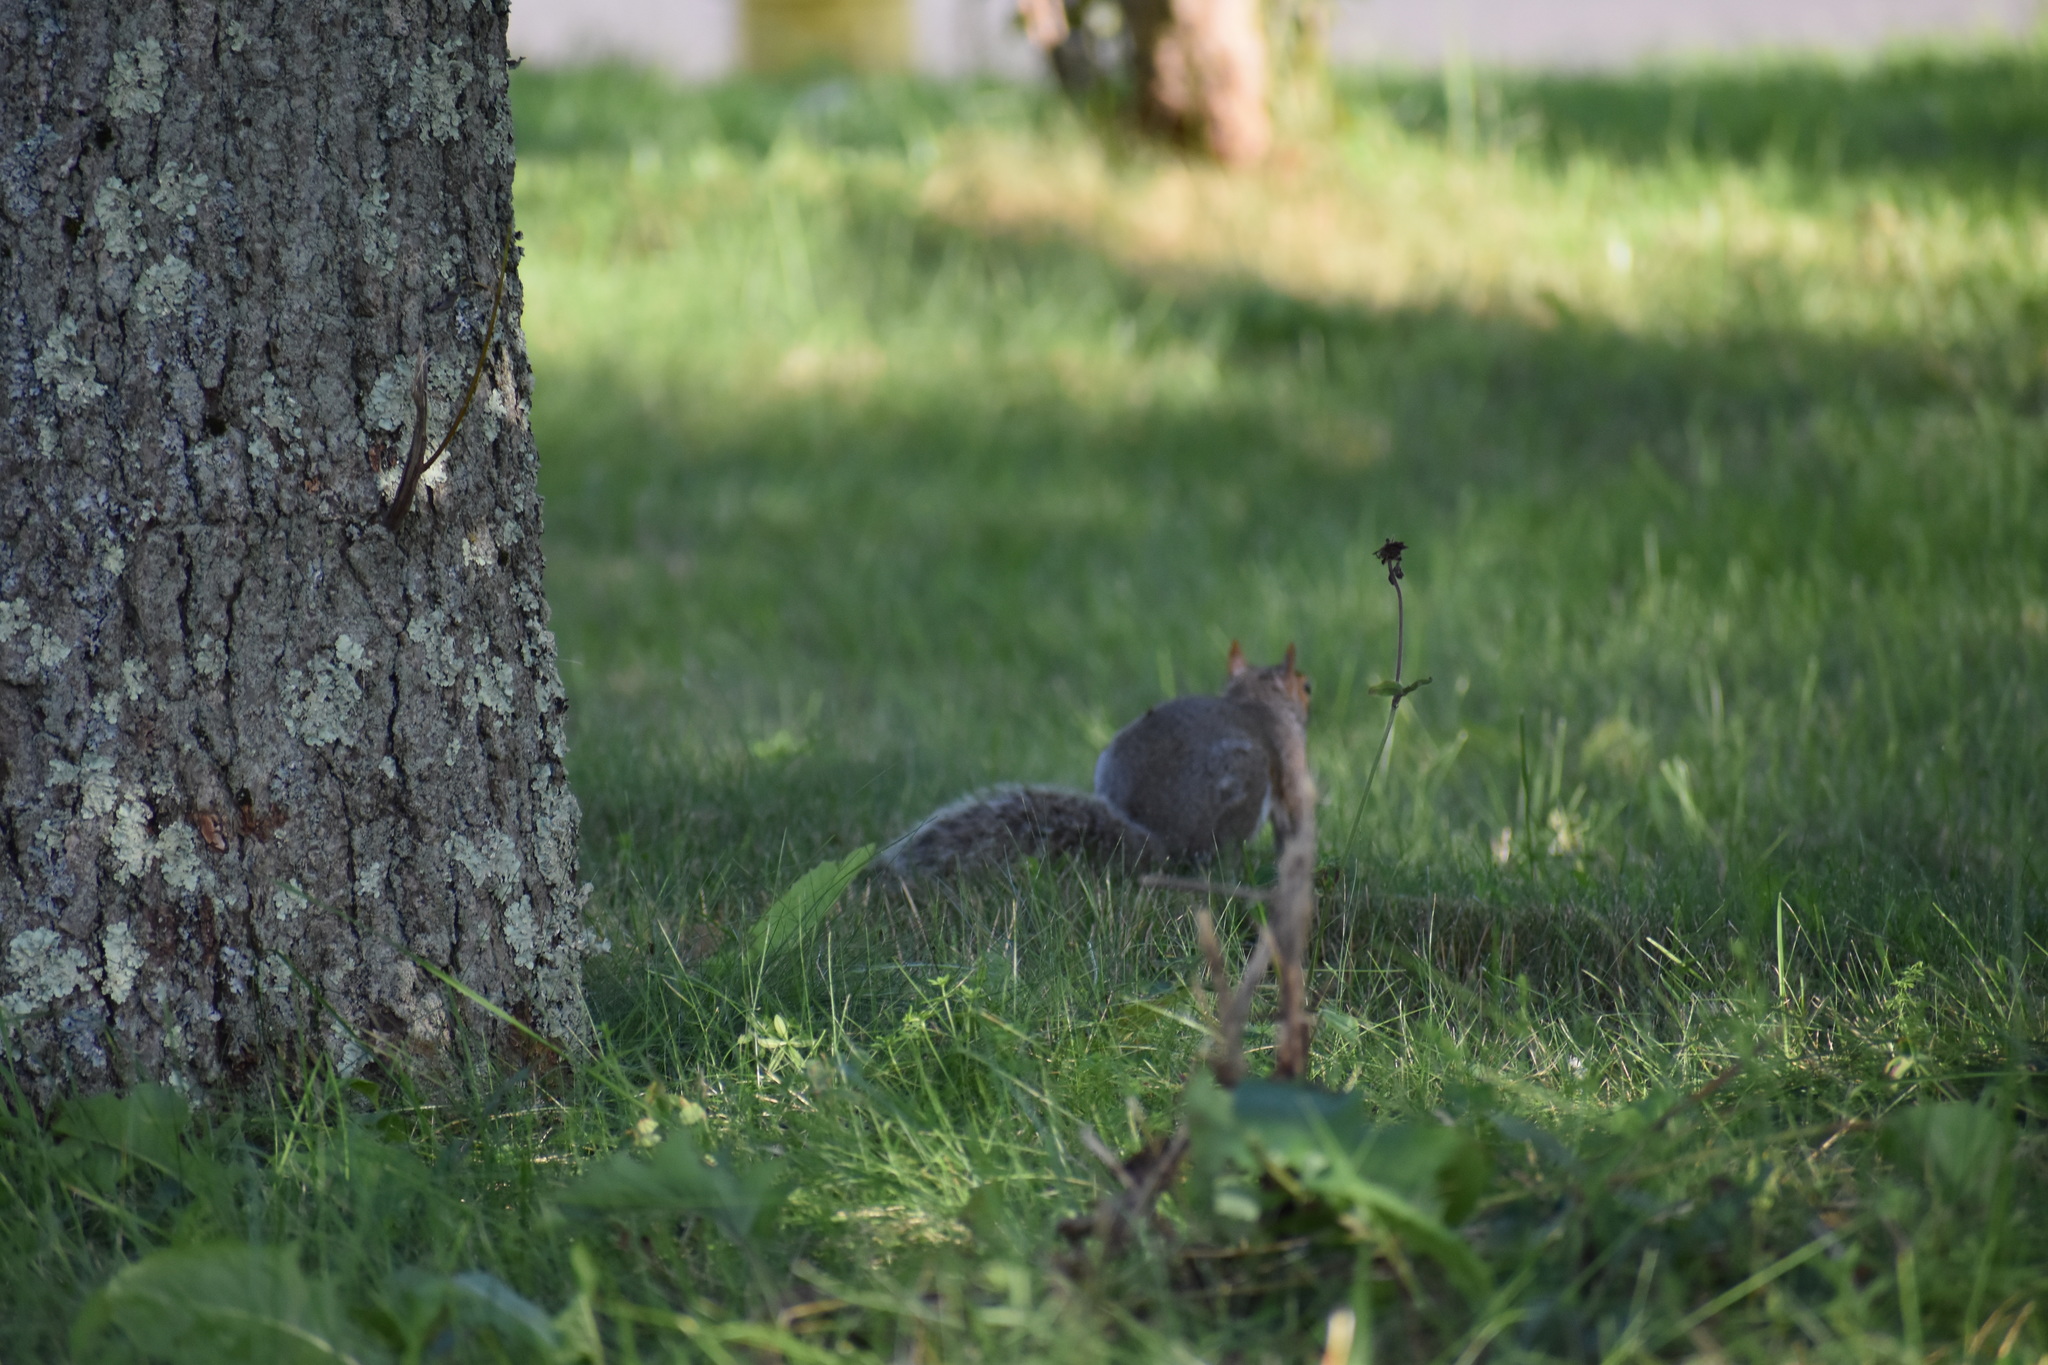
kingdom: Animalia
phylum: Chordata
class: Mammalia
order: Rodentia
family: Sciuridae
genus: Sciurus
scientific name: Sciurus carolinensis
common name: Eastern gray squirrel
